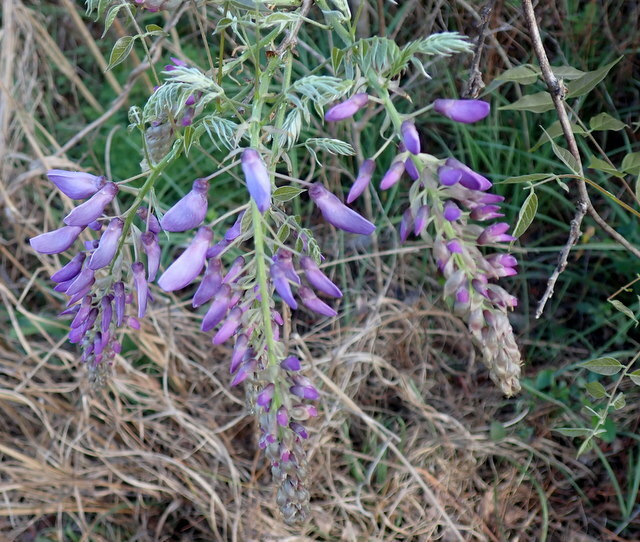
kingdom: Plantae
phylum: Tracheophyta
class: Magnoliopsida
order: Fabales
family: Fabaceae
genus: Wisteria
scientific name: Wisteria sinensis
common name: Chinese wisteria
